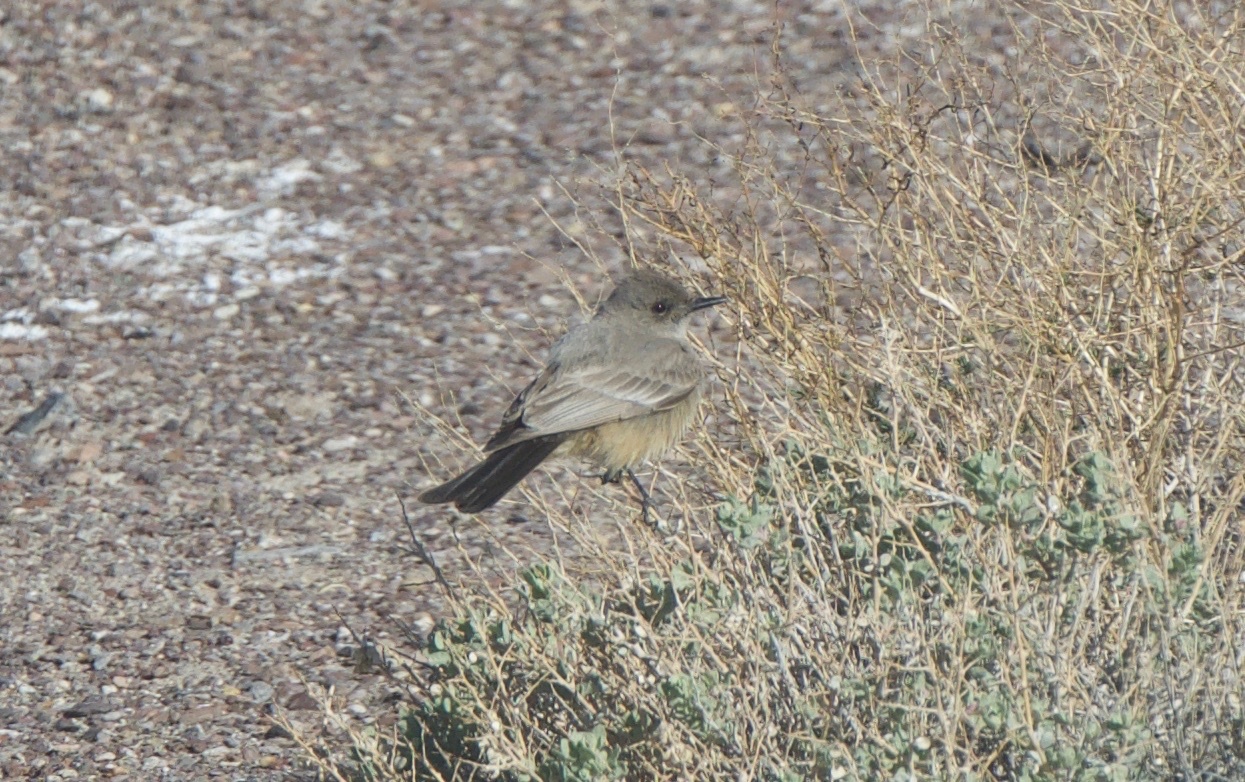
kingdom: Animalia
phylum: Chordata
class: Aves
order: Passeriformes
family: Tyrannidae
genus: Sayornis
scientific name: Sayornis saya
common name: Say's phoebe
